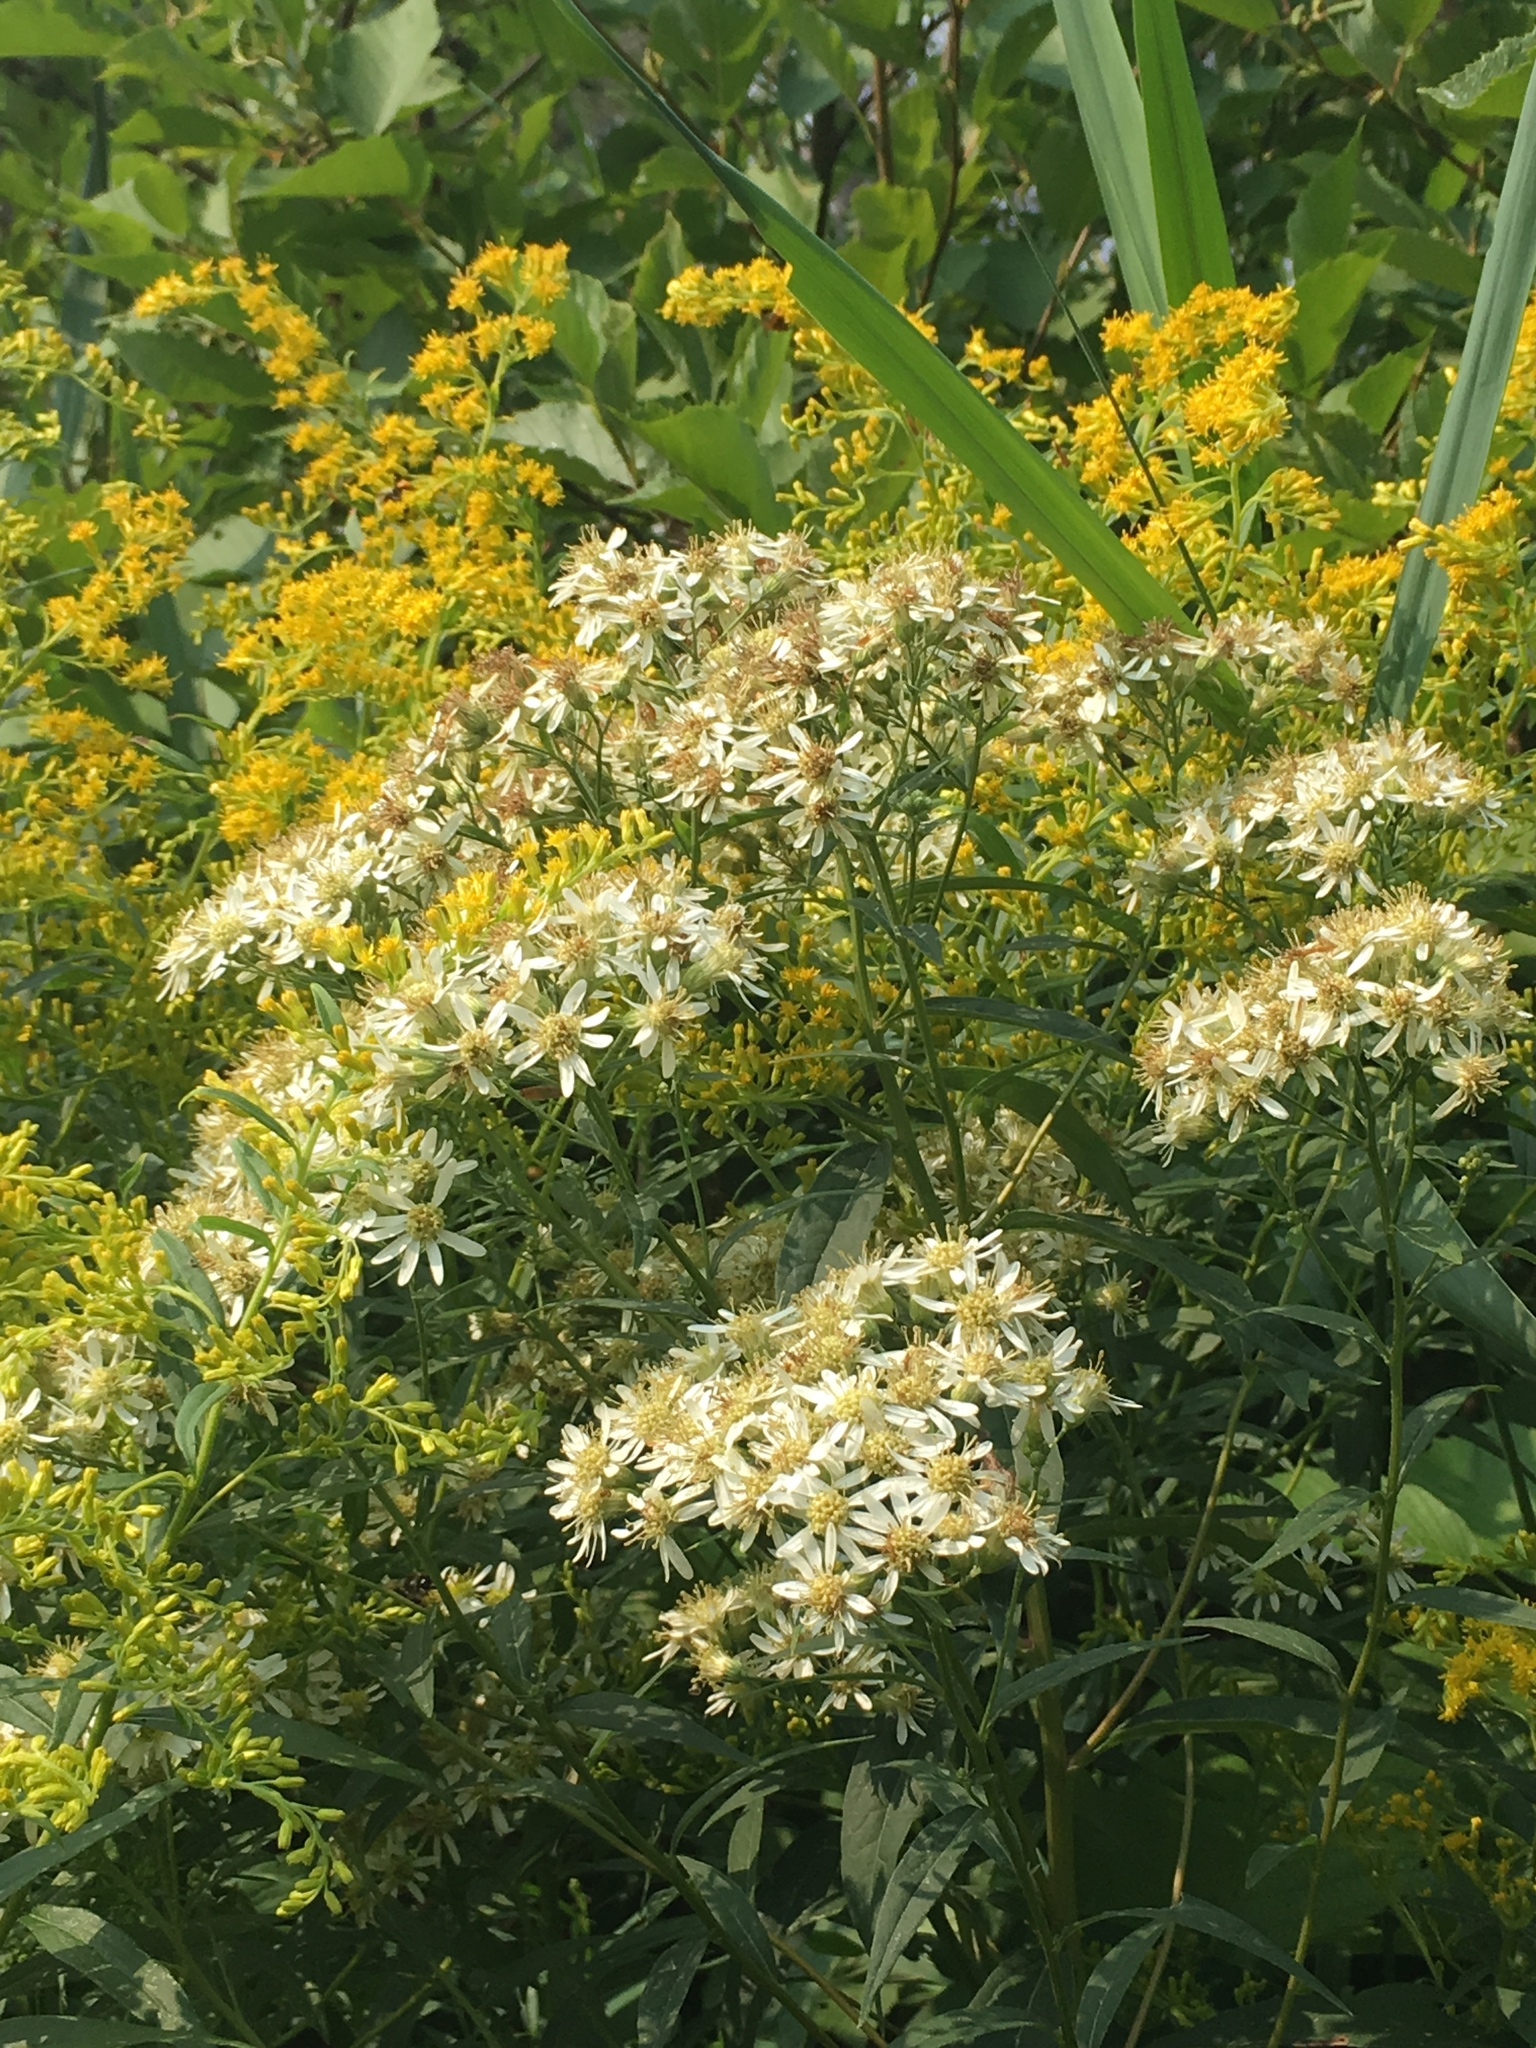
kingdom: Plantae
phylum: Tracheophyta
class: Magnoliopsida
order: Asterales
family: Asteraceae
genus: Doellingeria
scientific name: Doellingeria umbellata
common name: Flat-top white aster
